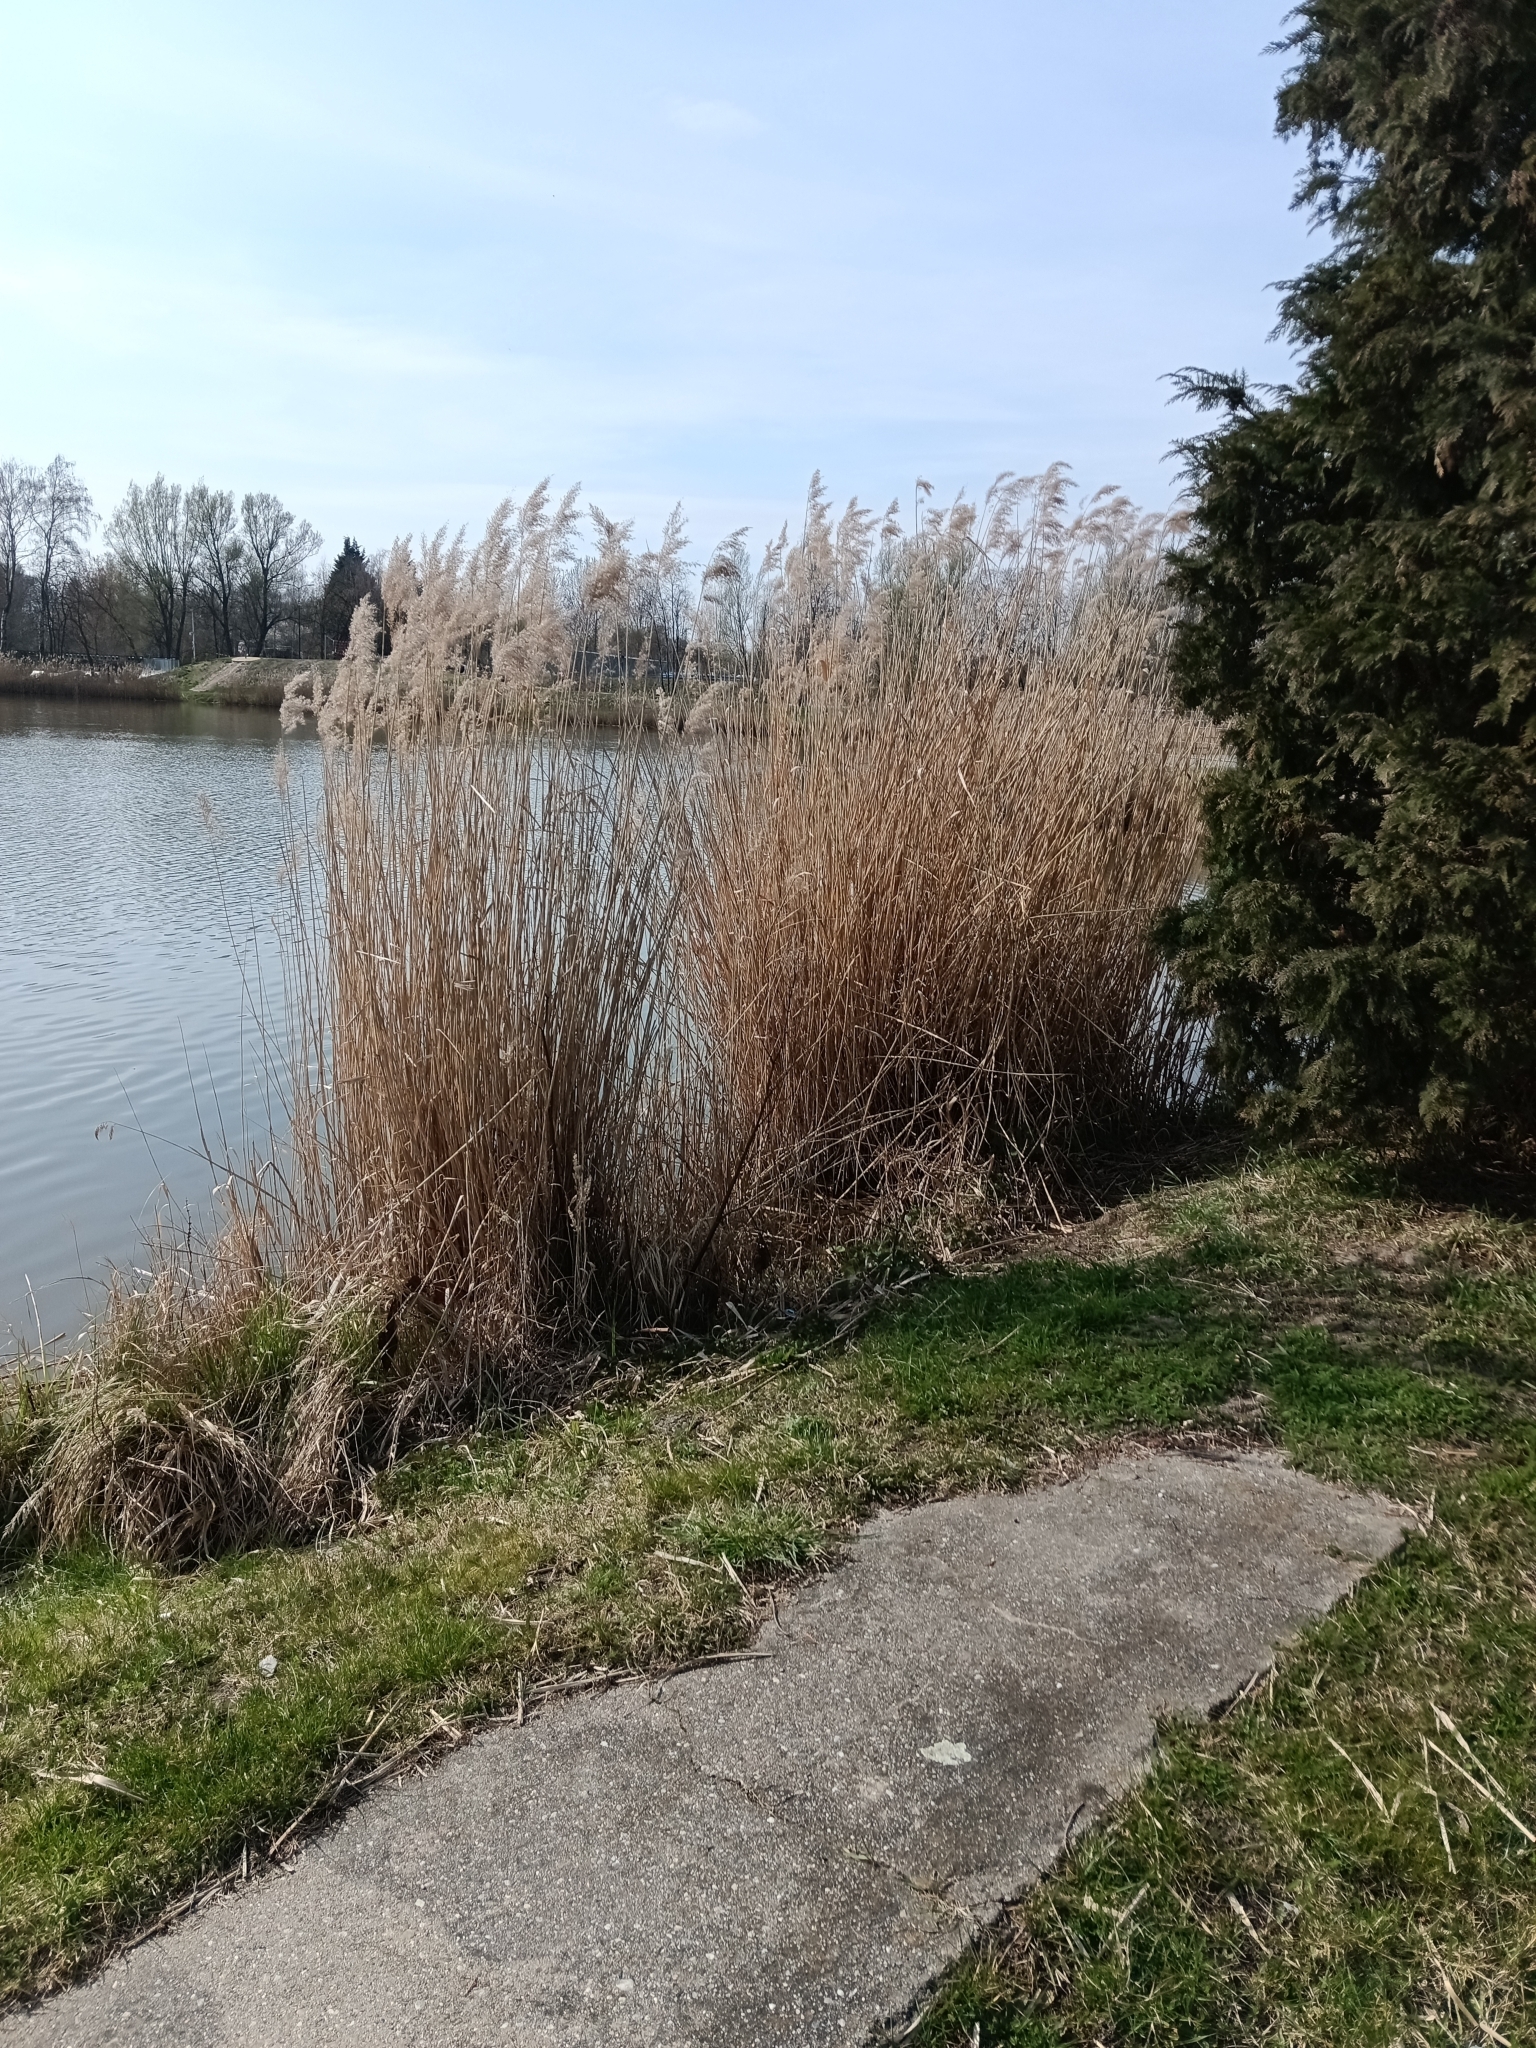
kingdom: Plantae
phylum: Tracheophyta
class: Liliopsida
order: Poales
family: Poaceae
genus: Phragmites
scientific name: Phragmites australis
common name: Common reed
